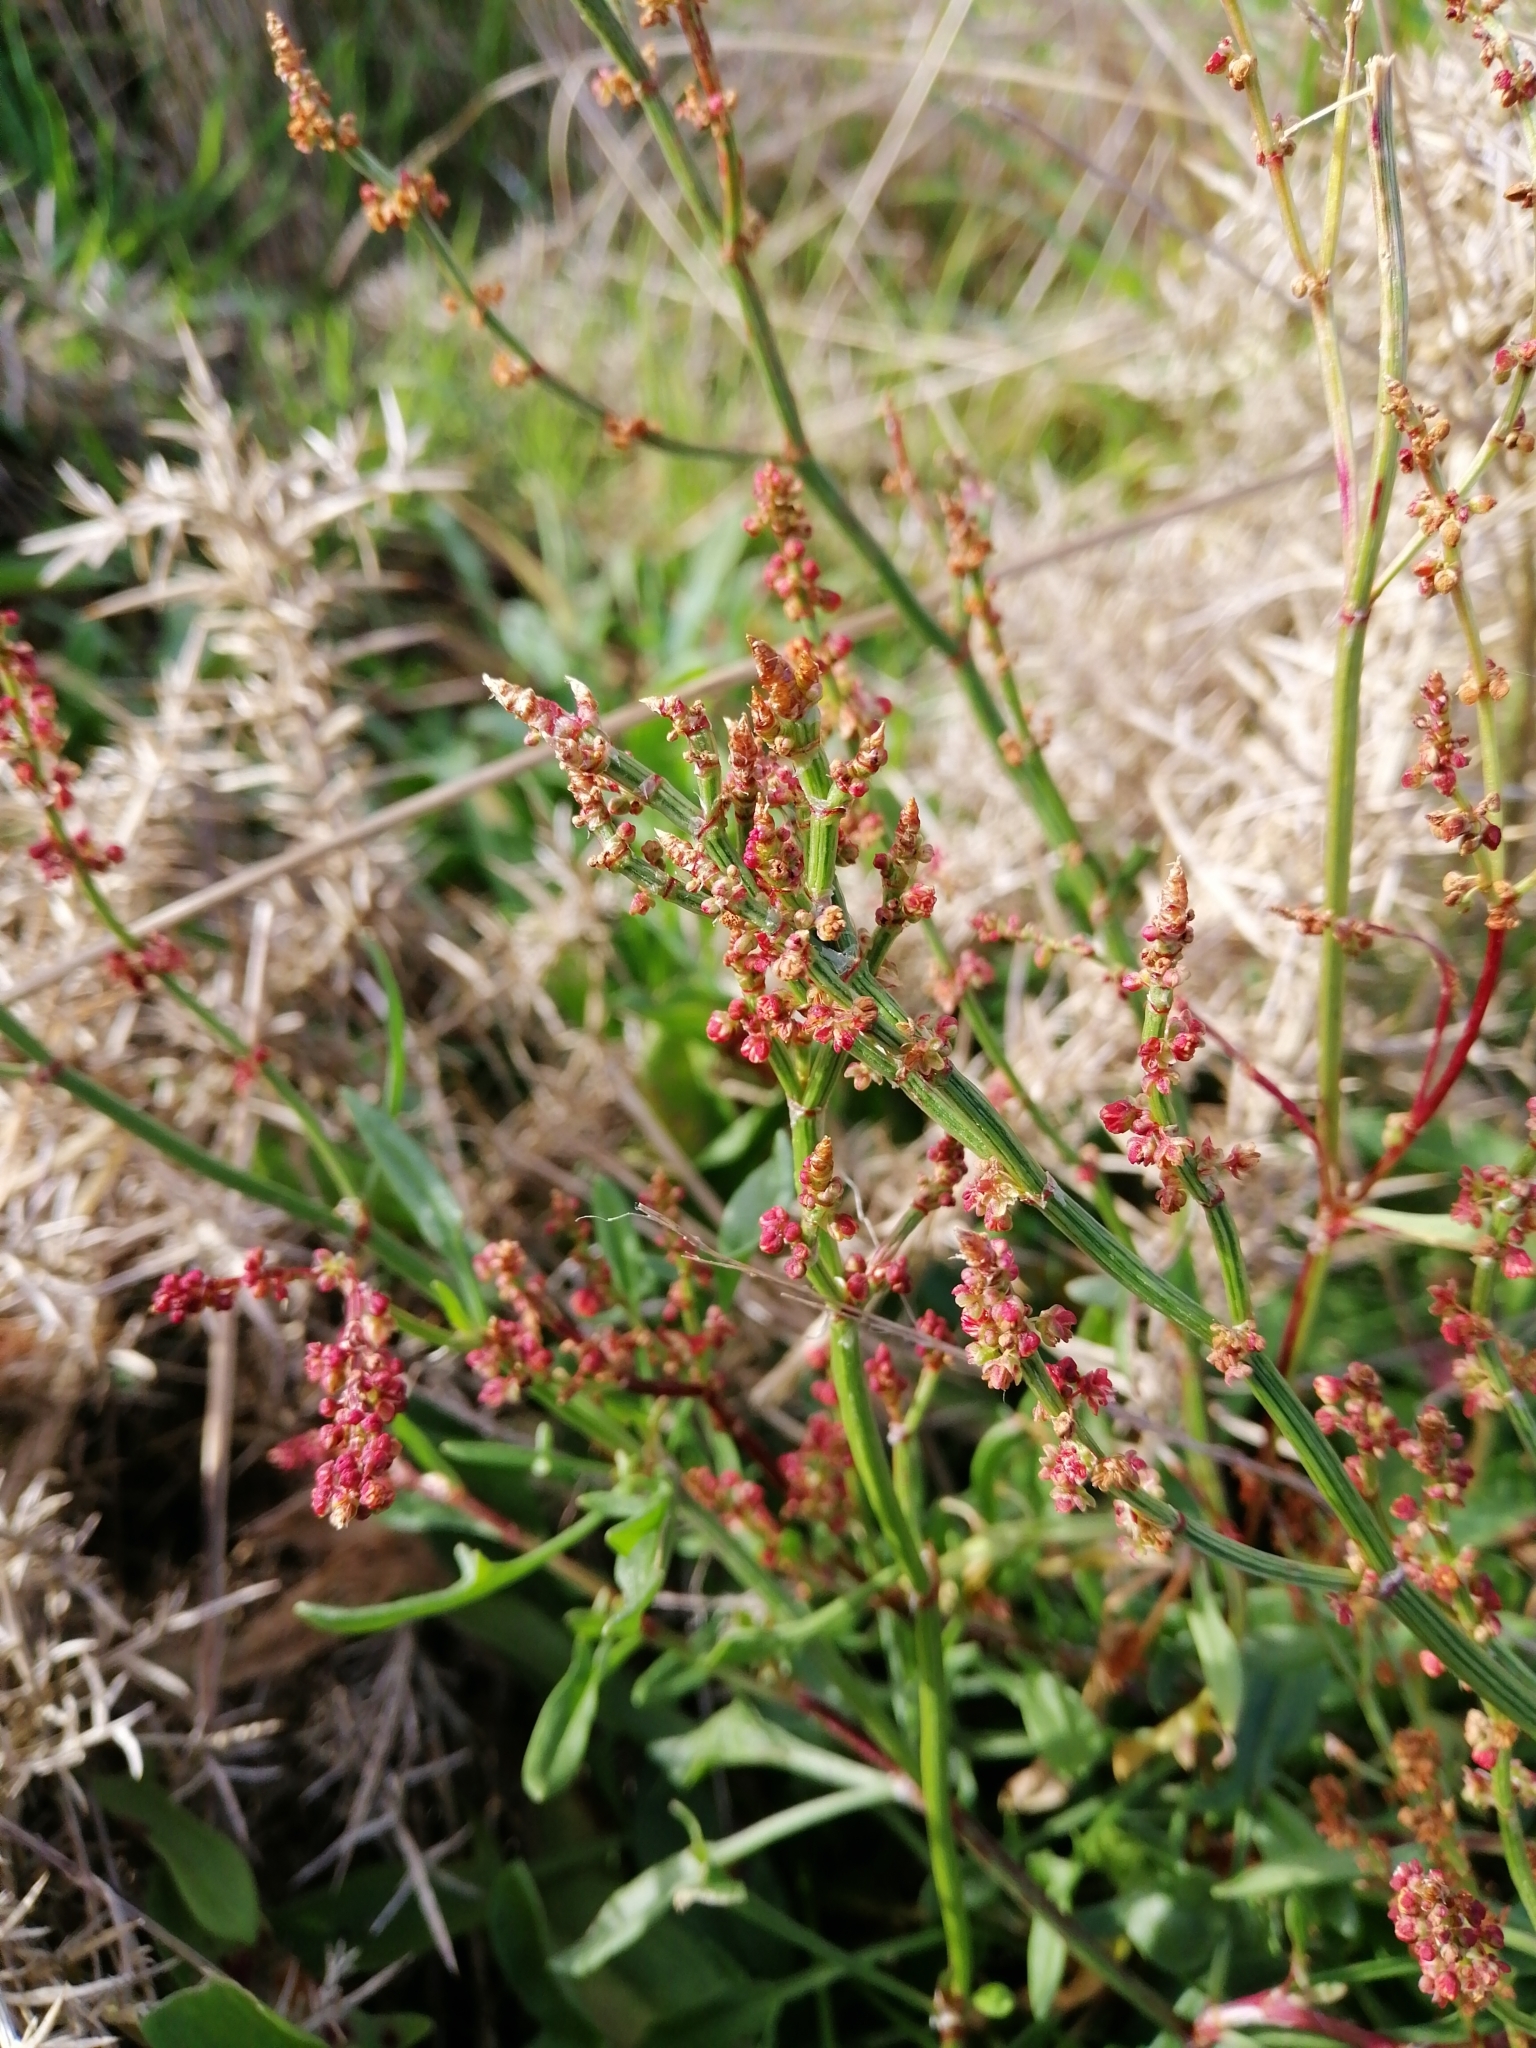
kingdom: Plantae
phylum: Tracheophyta
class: Magnoliopsida
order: Caryophyllales
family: Polygonaceae
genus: Rumex
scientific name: Rumex acetosella
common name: Common sheep sorrel
